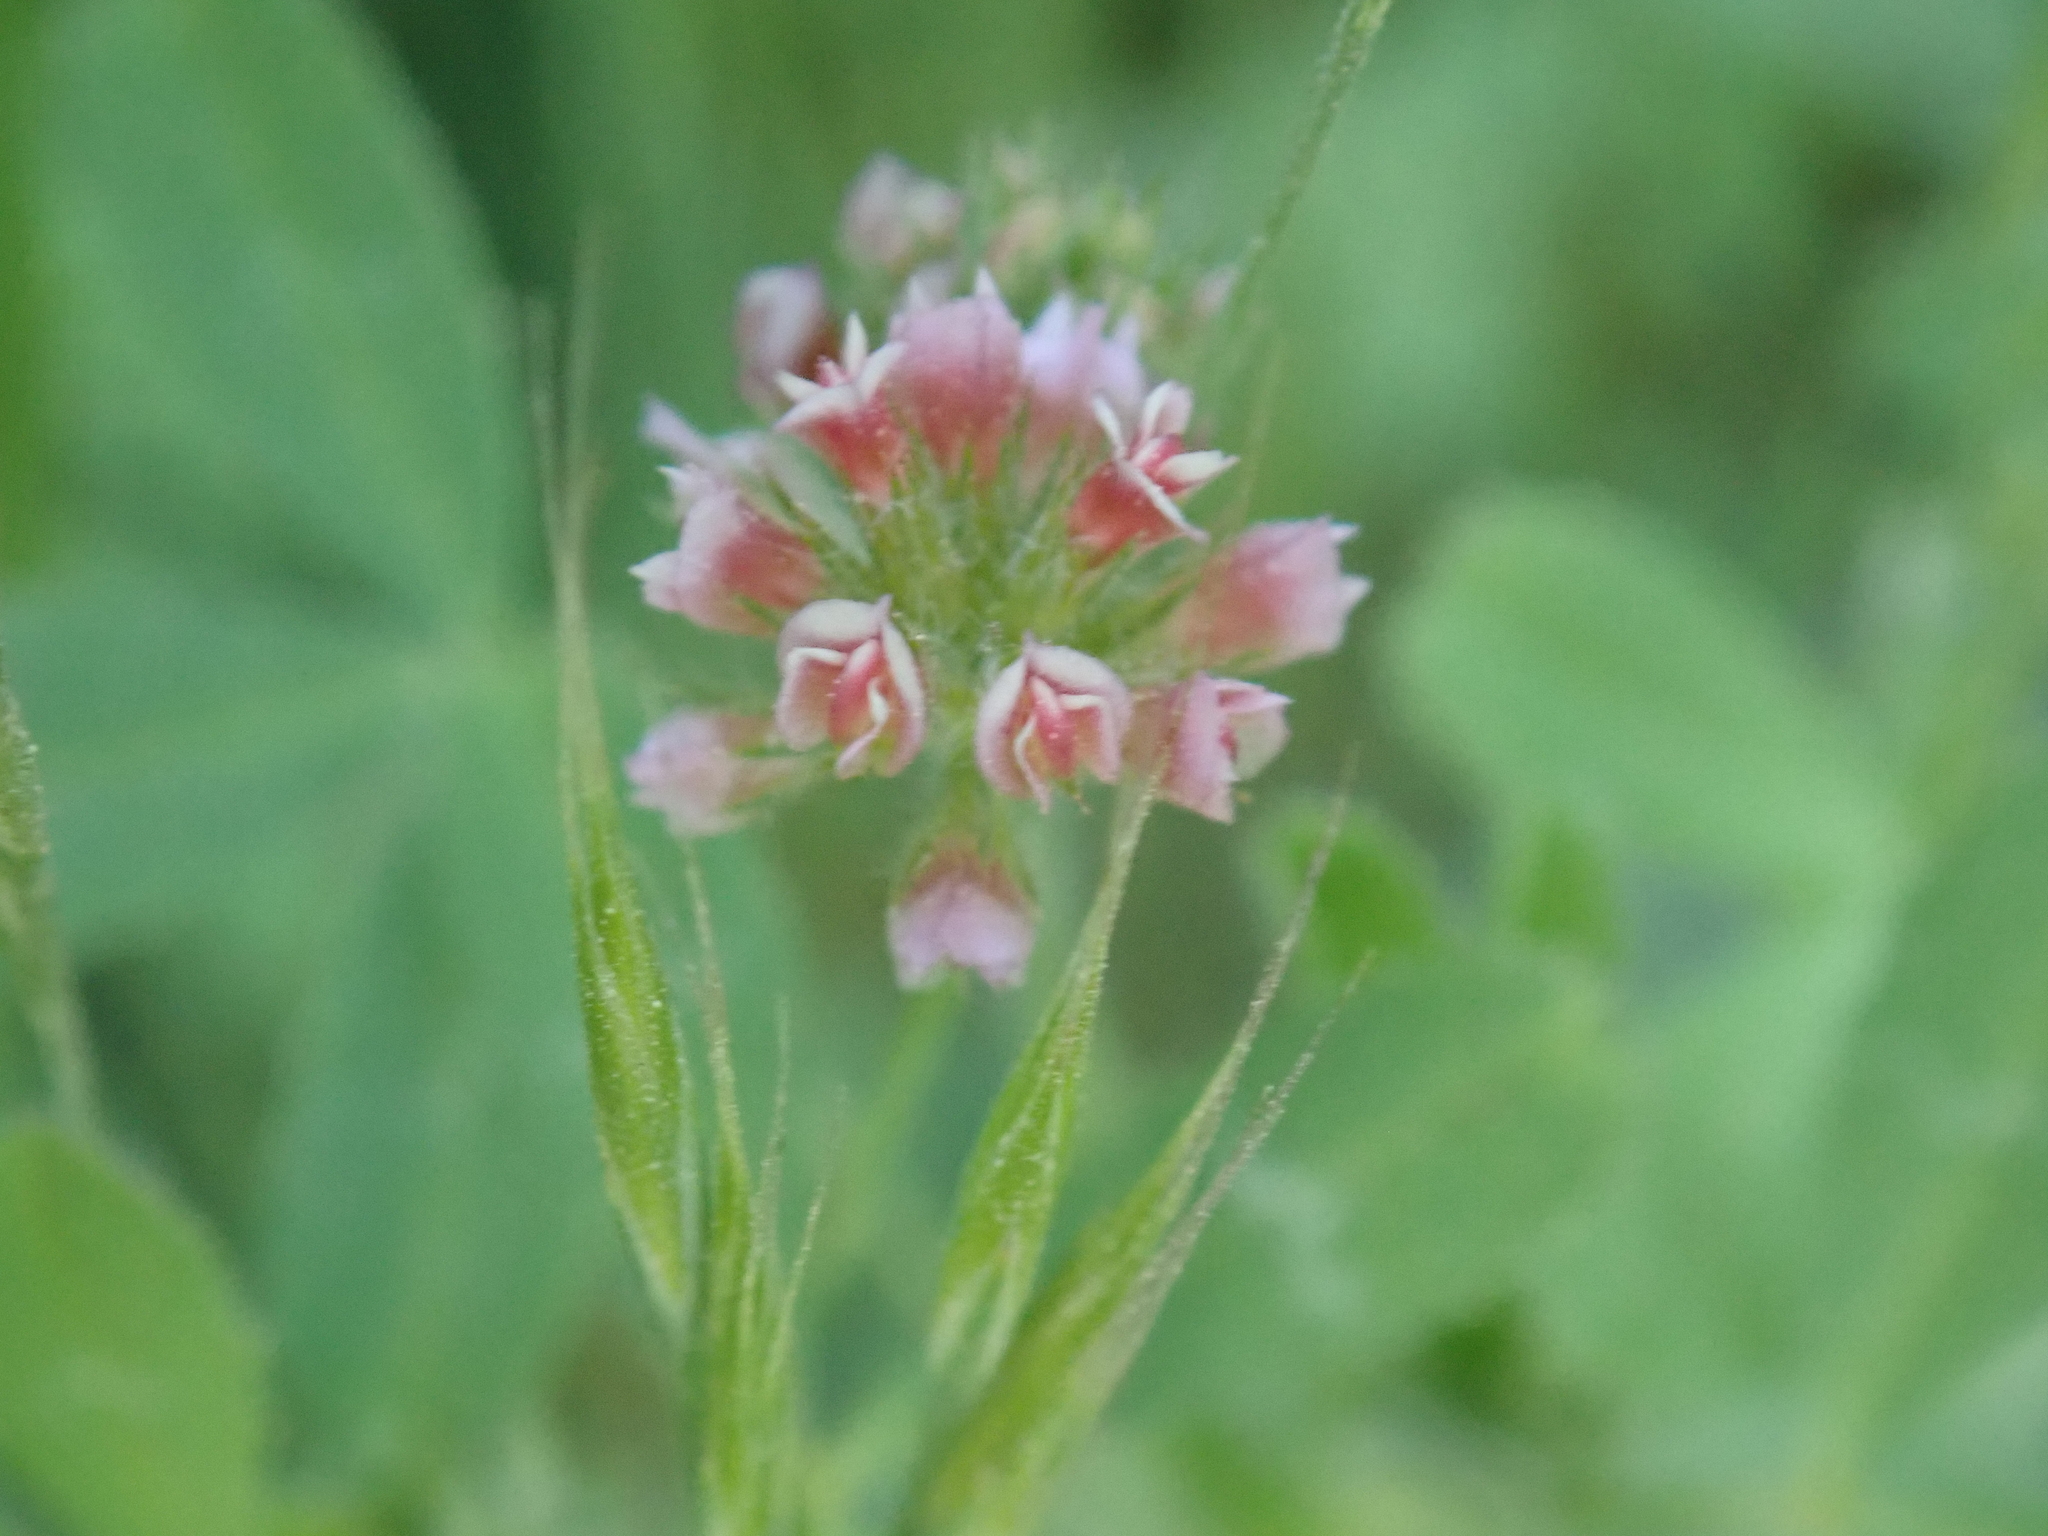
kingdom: Plantae
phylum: Tracheophyta
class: Magnoliopsida
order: Fabales
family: Fabaceae
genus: Trifolium
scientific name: Trifolium bifidum
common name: Notch-leaf clover
